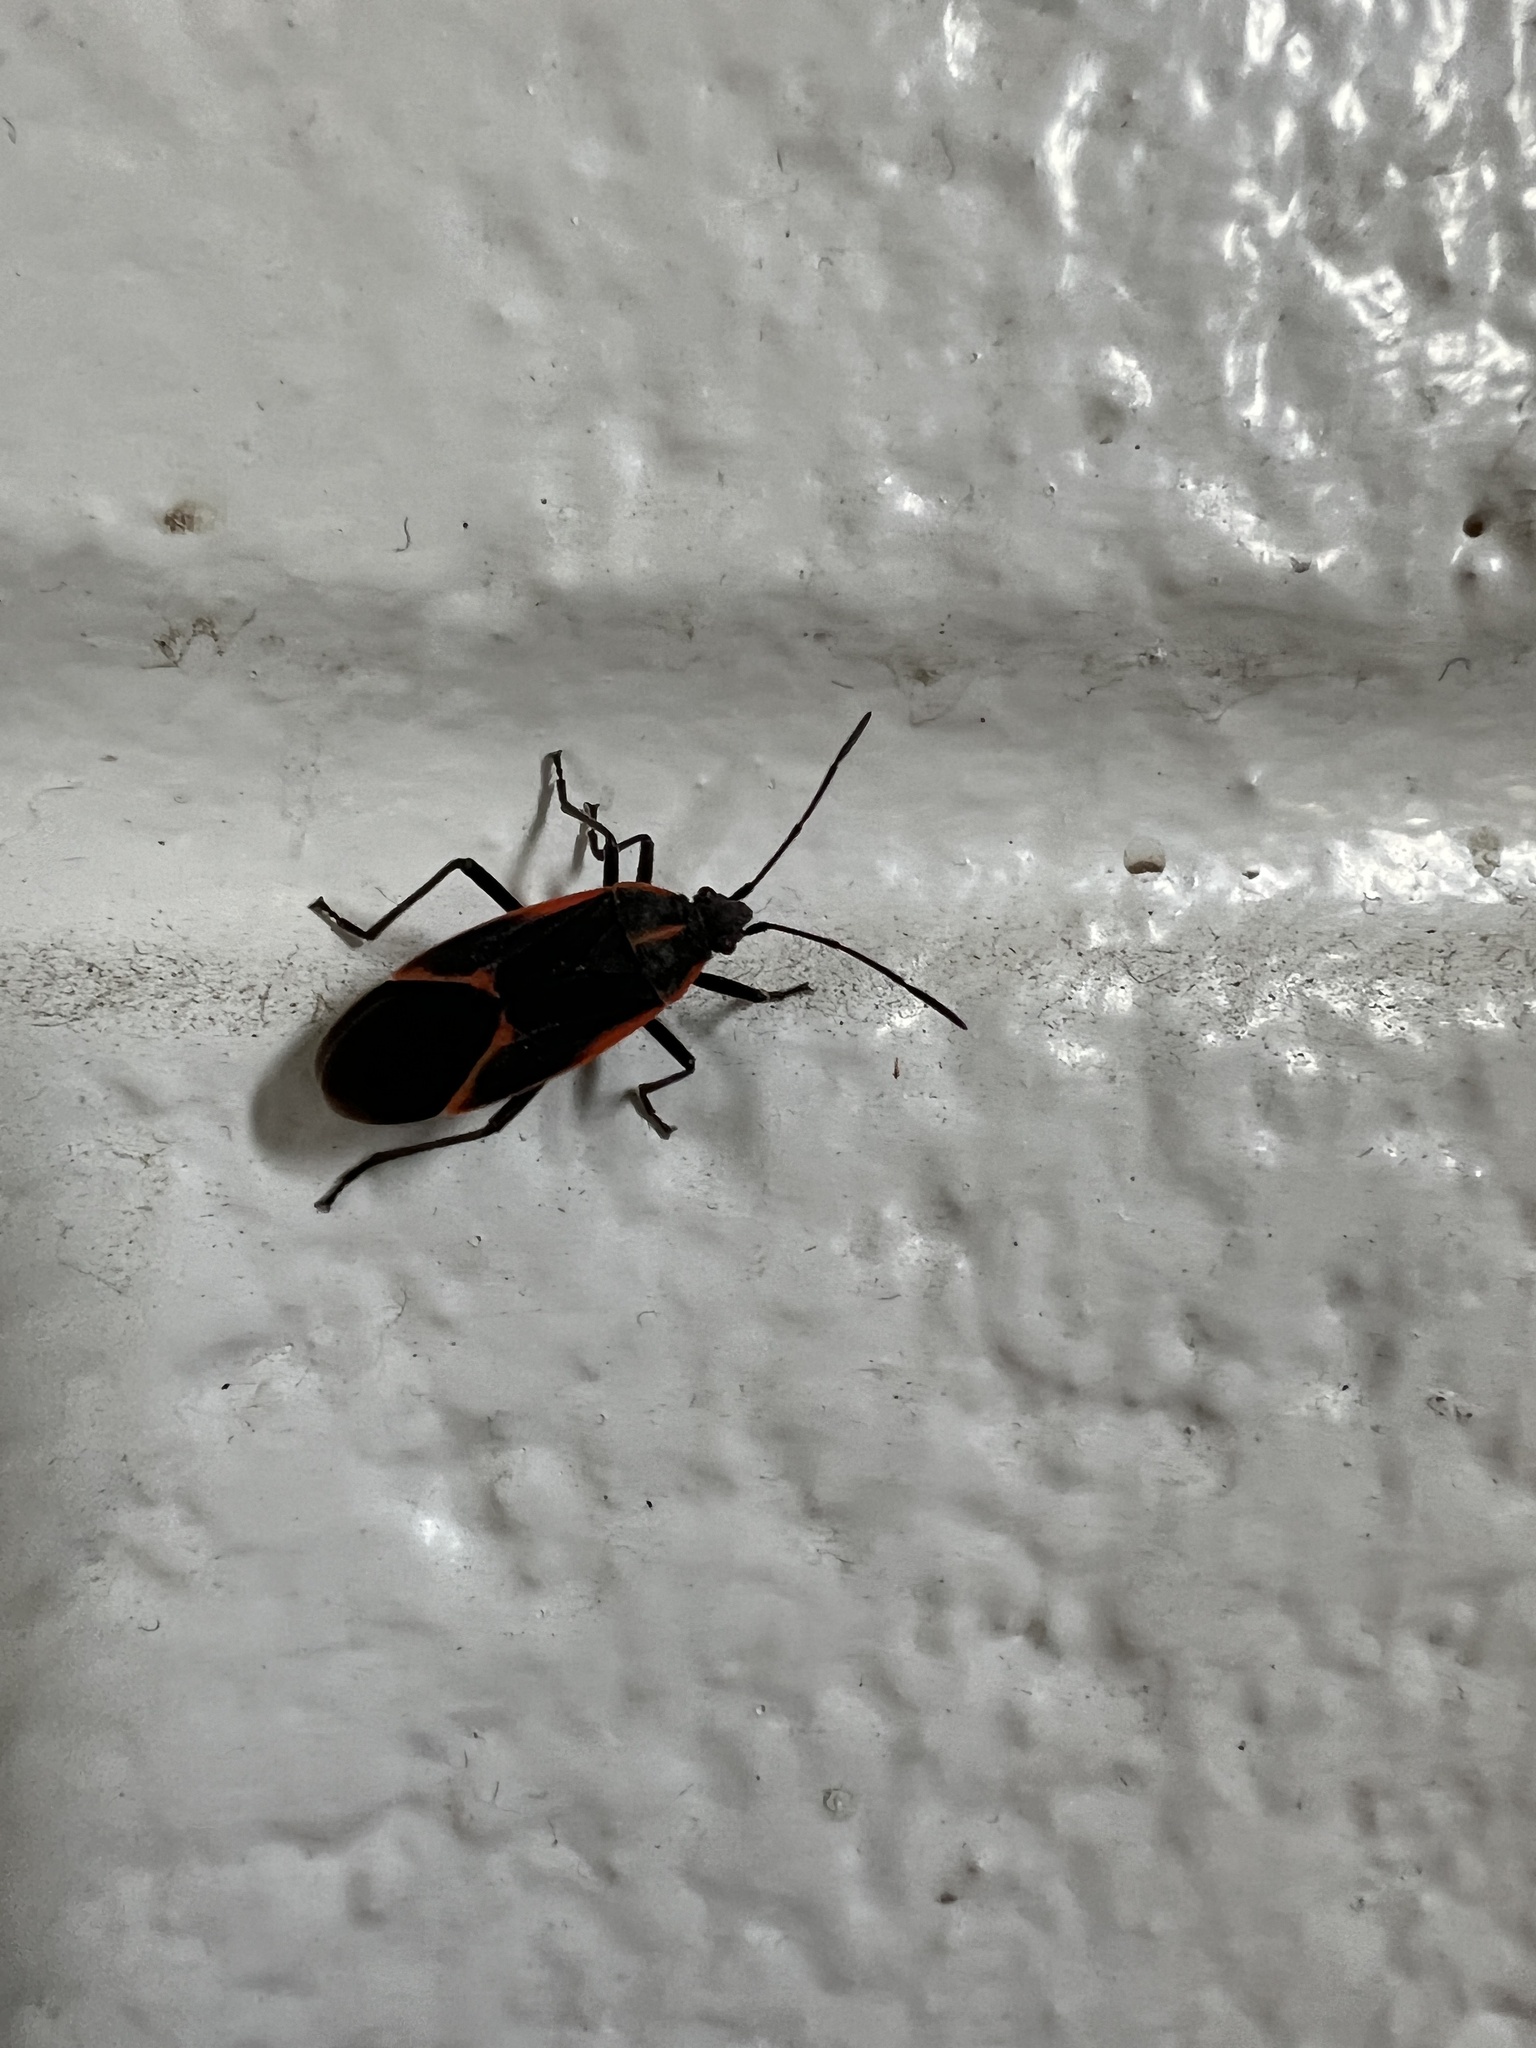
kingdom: Animalia
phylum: Arthropoda
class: Insecta
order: Hemiptera
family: Rhopalidae
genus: Boisea
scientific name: Boisea trivittata
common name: Boxelder bug
